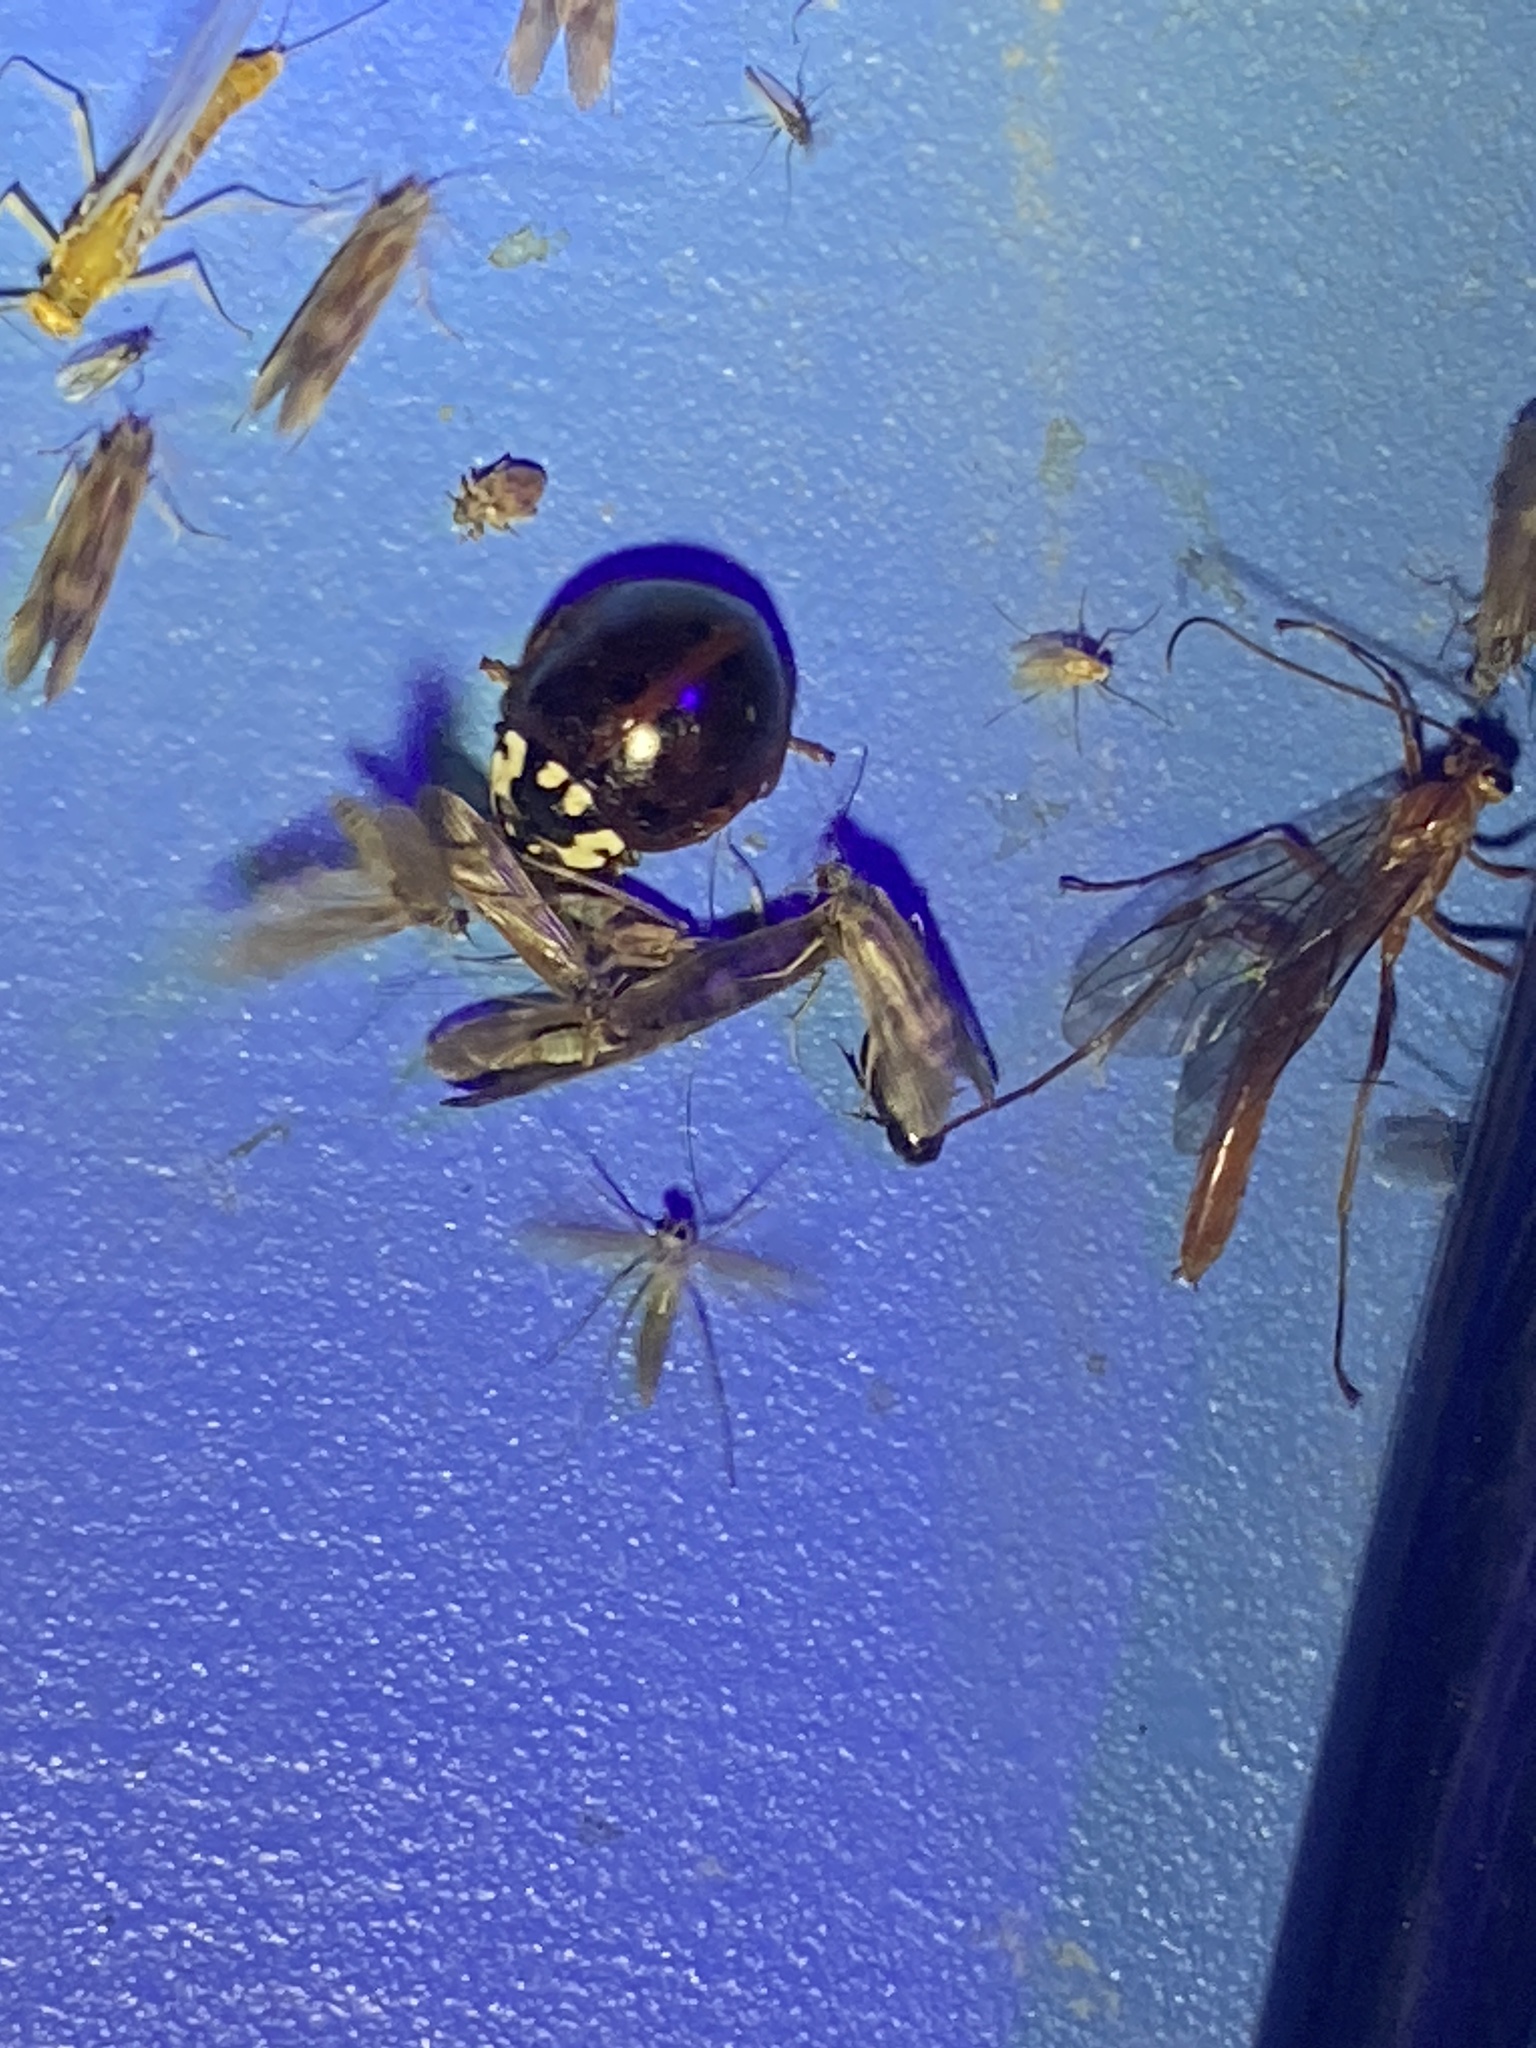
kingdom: Animalia
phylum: Arthropoda
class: Insecta
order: Coleoptera
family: Coccinellidae
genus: Anatis
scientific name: Anatis labiculata
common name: Fifteen-spotted lady beetle
